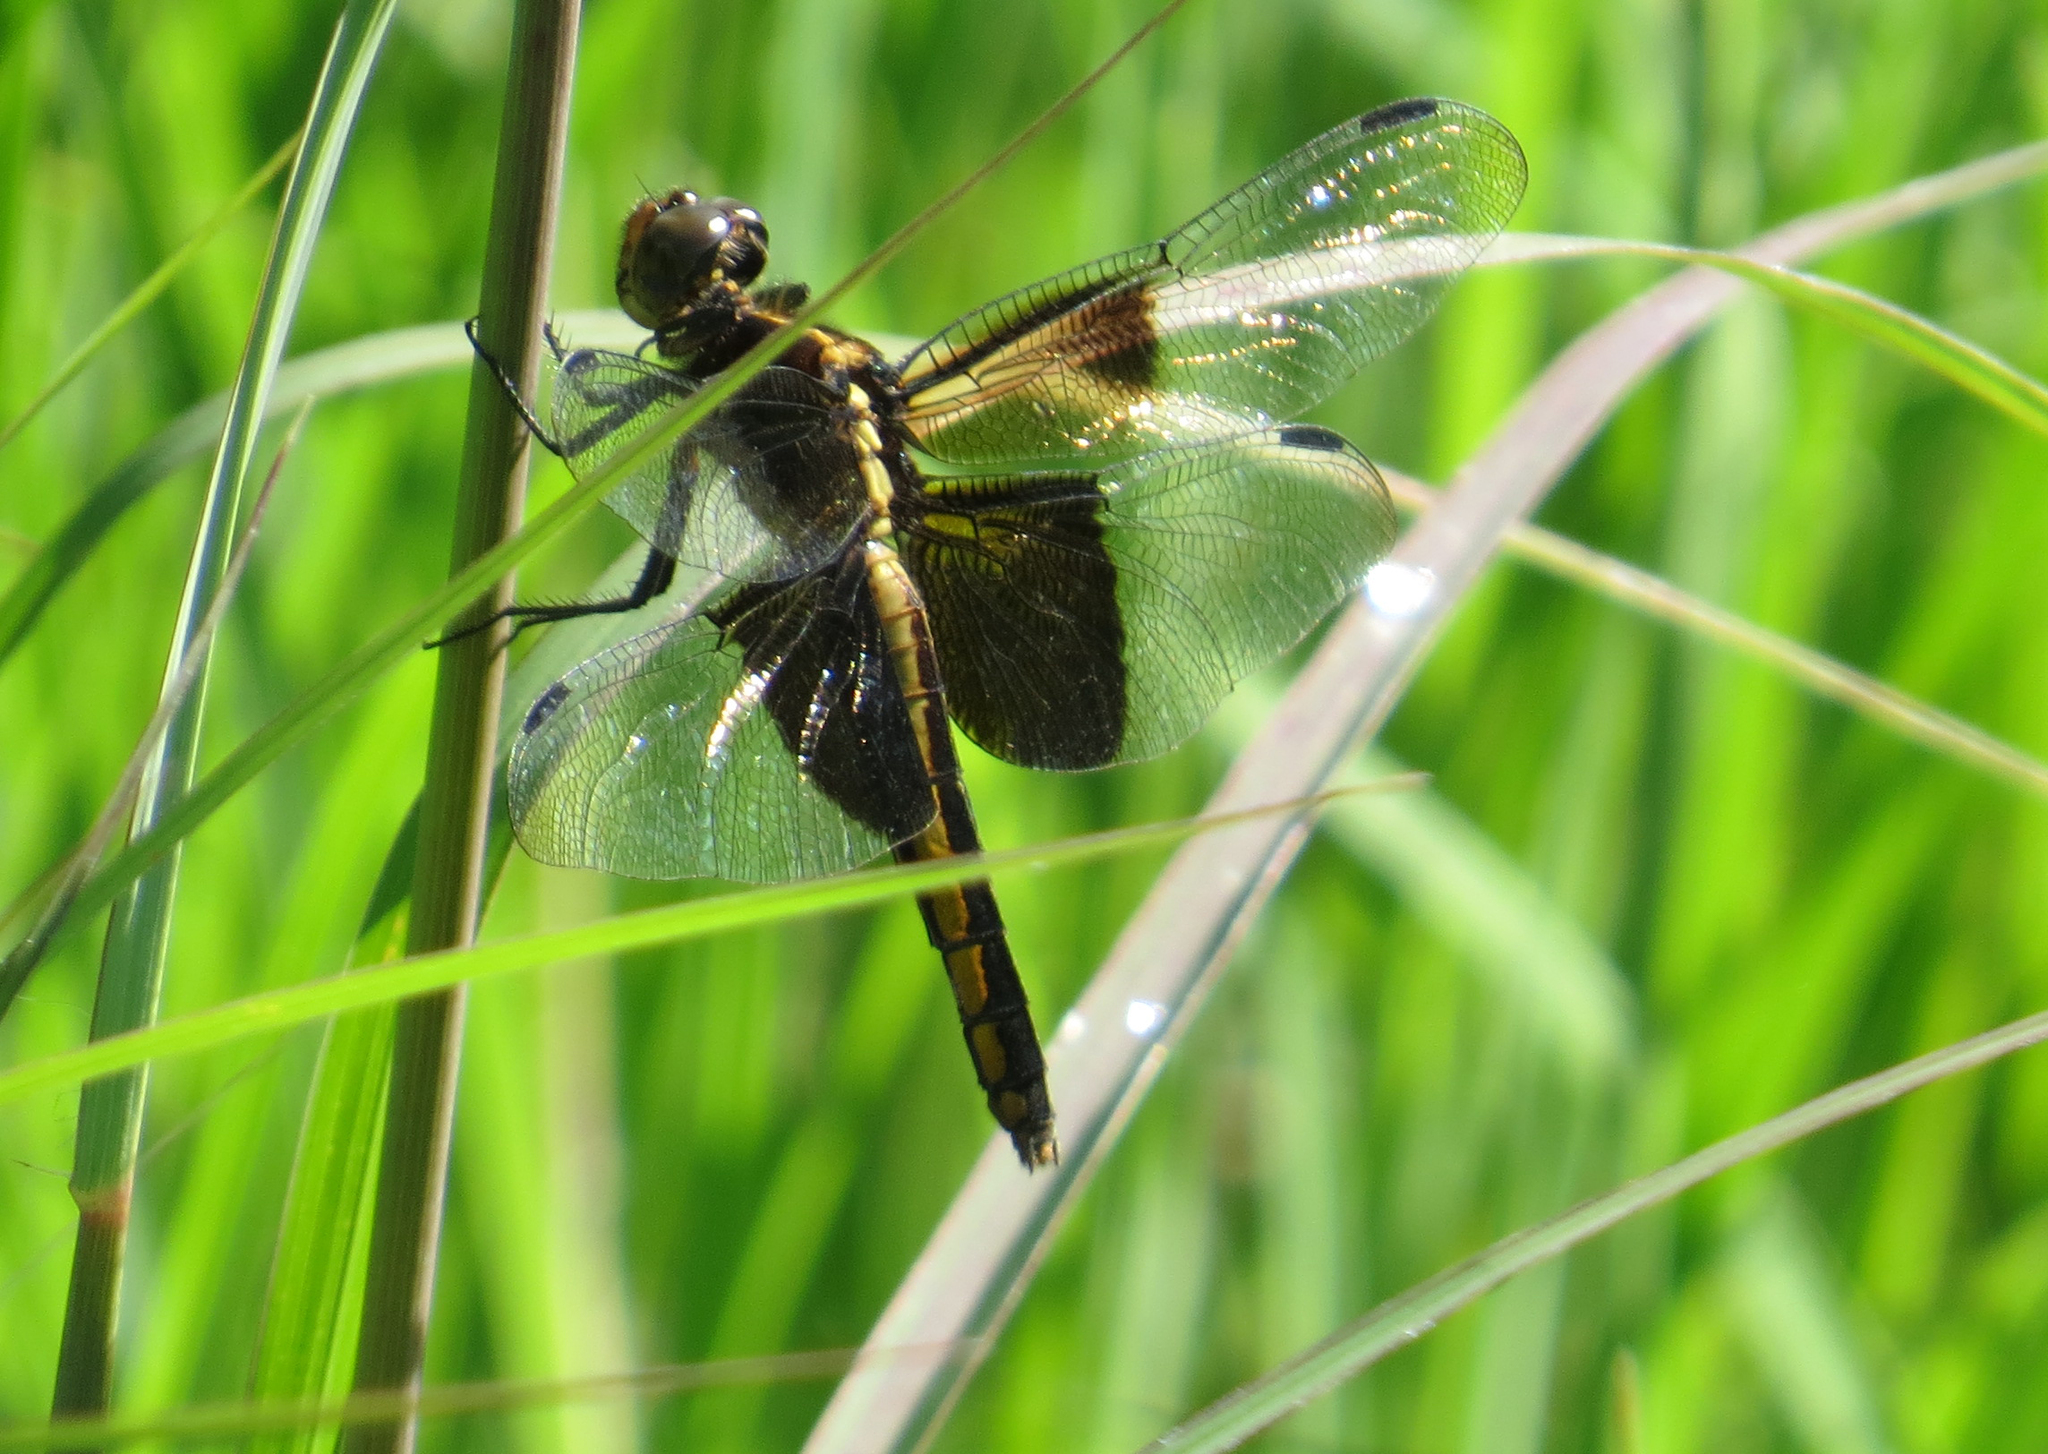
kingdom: Animalia
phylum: Arthropoda
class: Insecta
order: Odonata
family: Libellulidae
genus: Libellula
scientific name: Libellula luctuosa
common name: Widow skimmer
